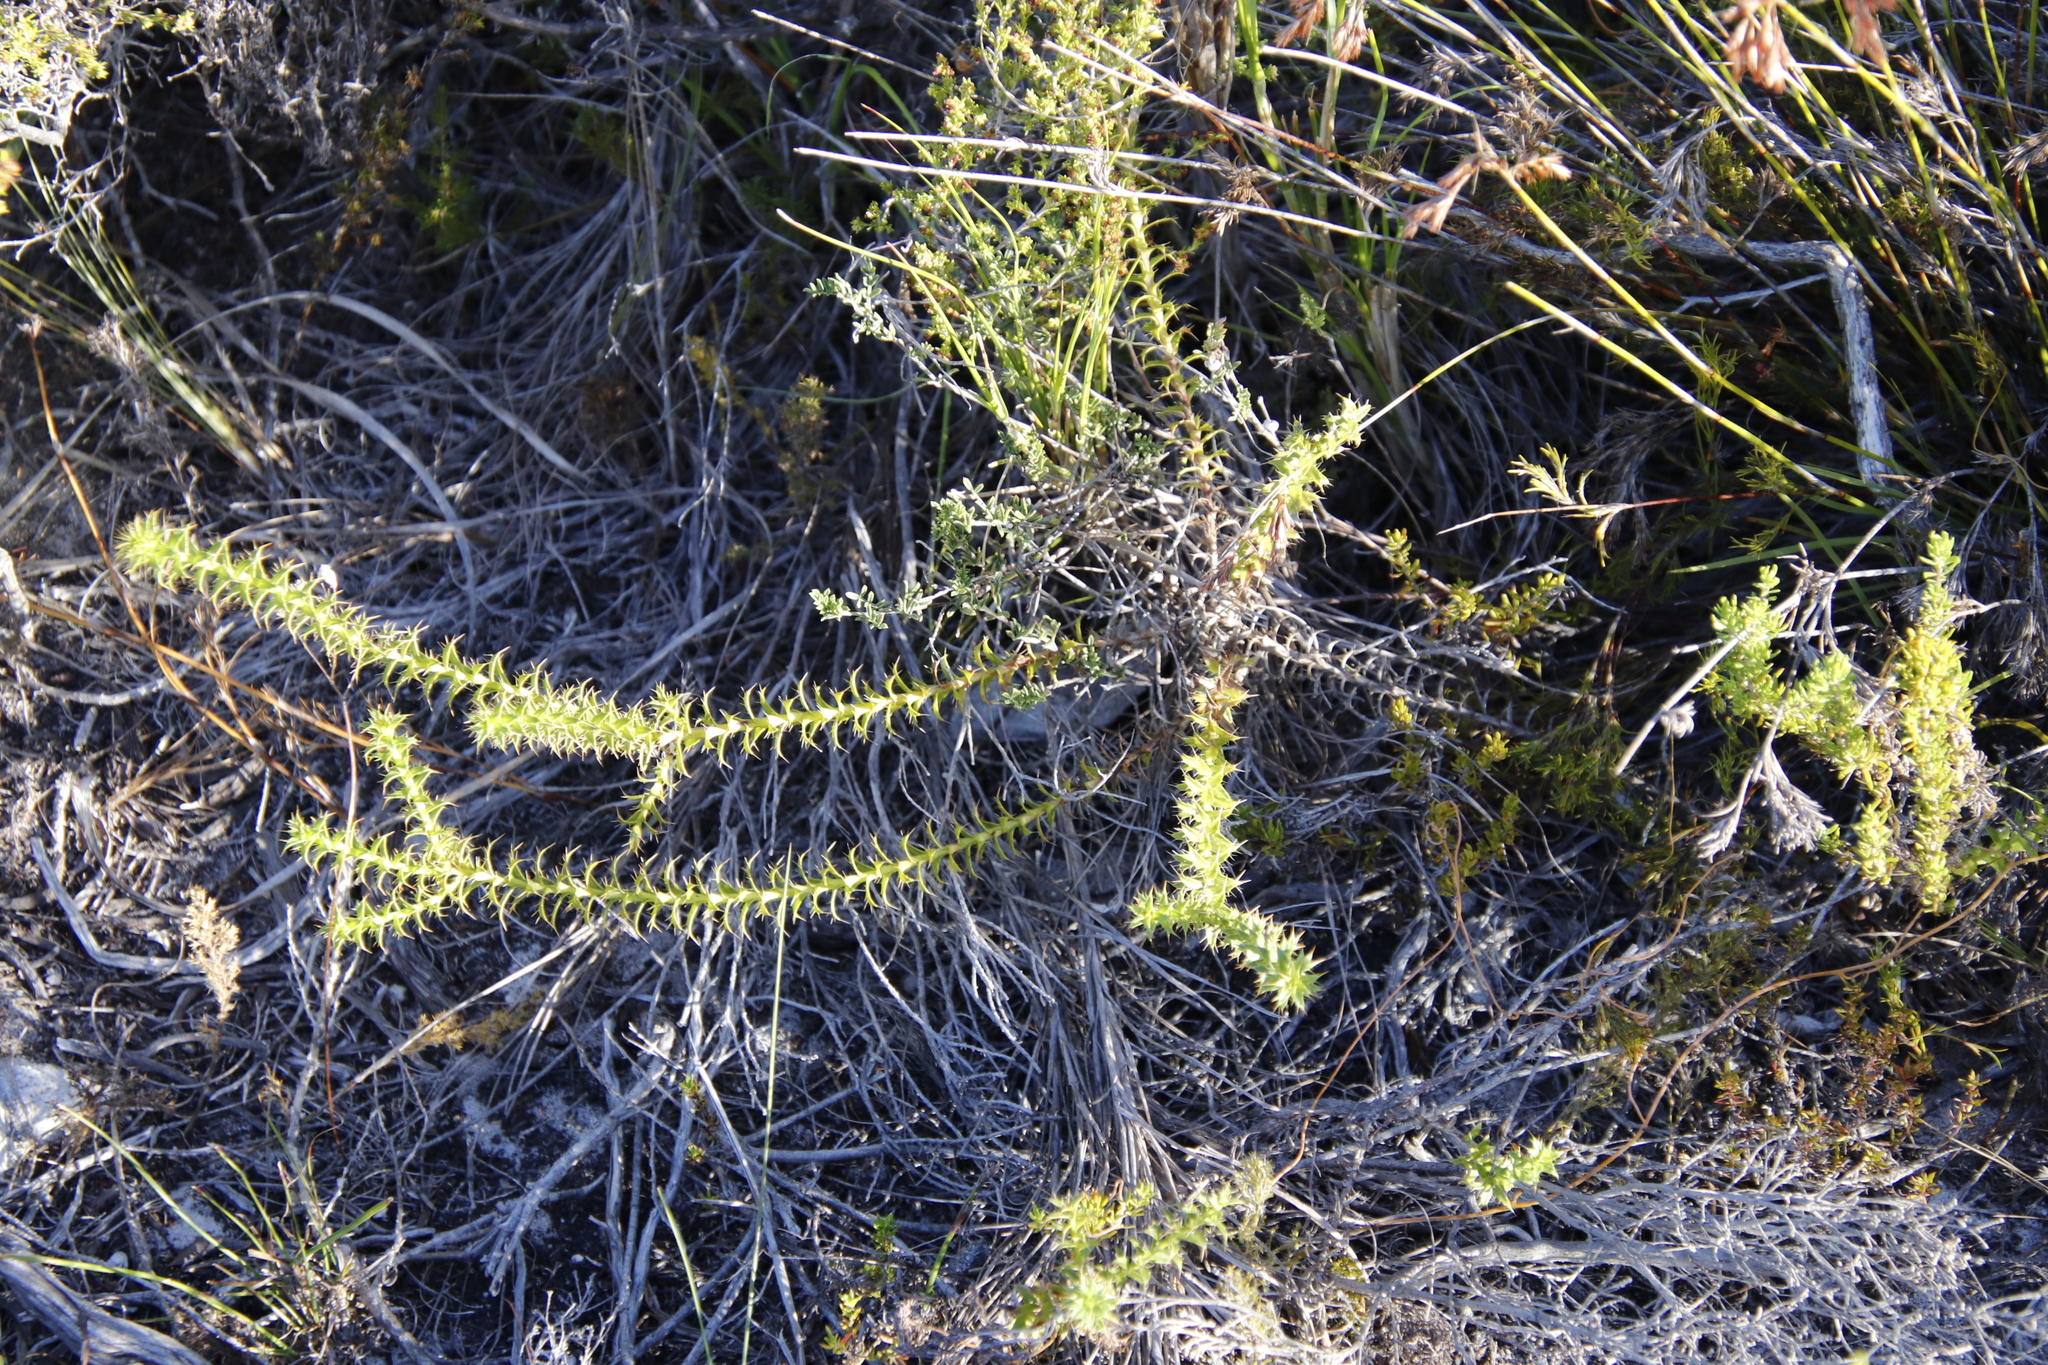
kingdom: Plantae
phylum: Tracheophyta
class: Magnoliopsida
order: Asterales
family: Asteraceae
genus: Cullumia
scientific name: Cullumia setosa
